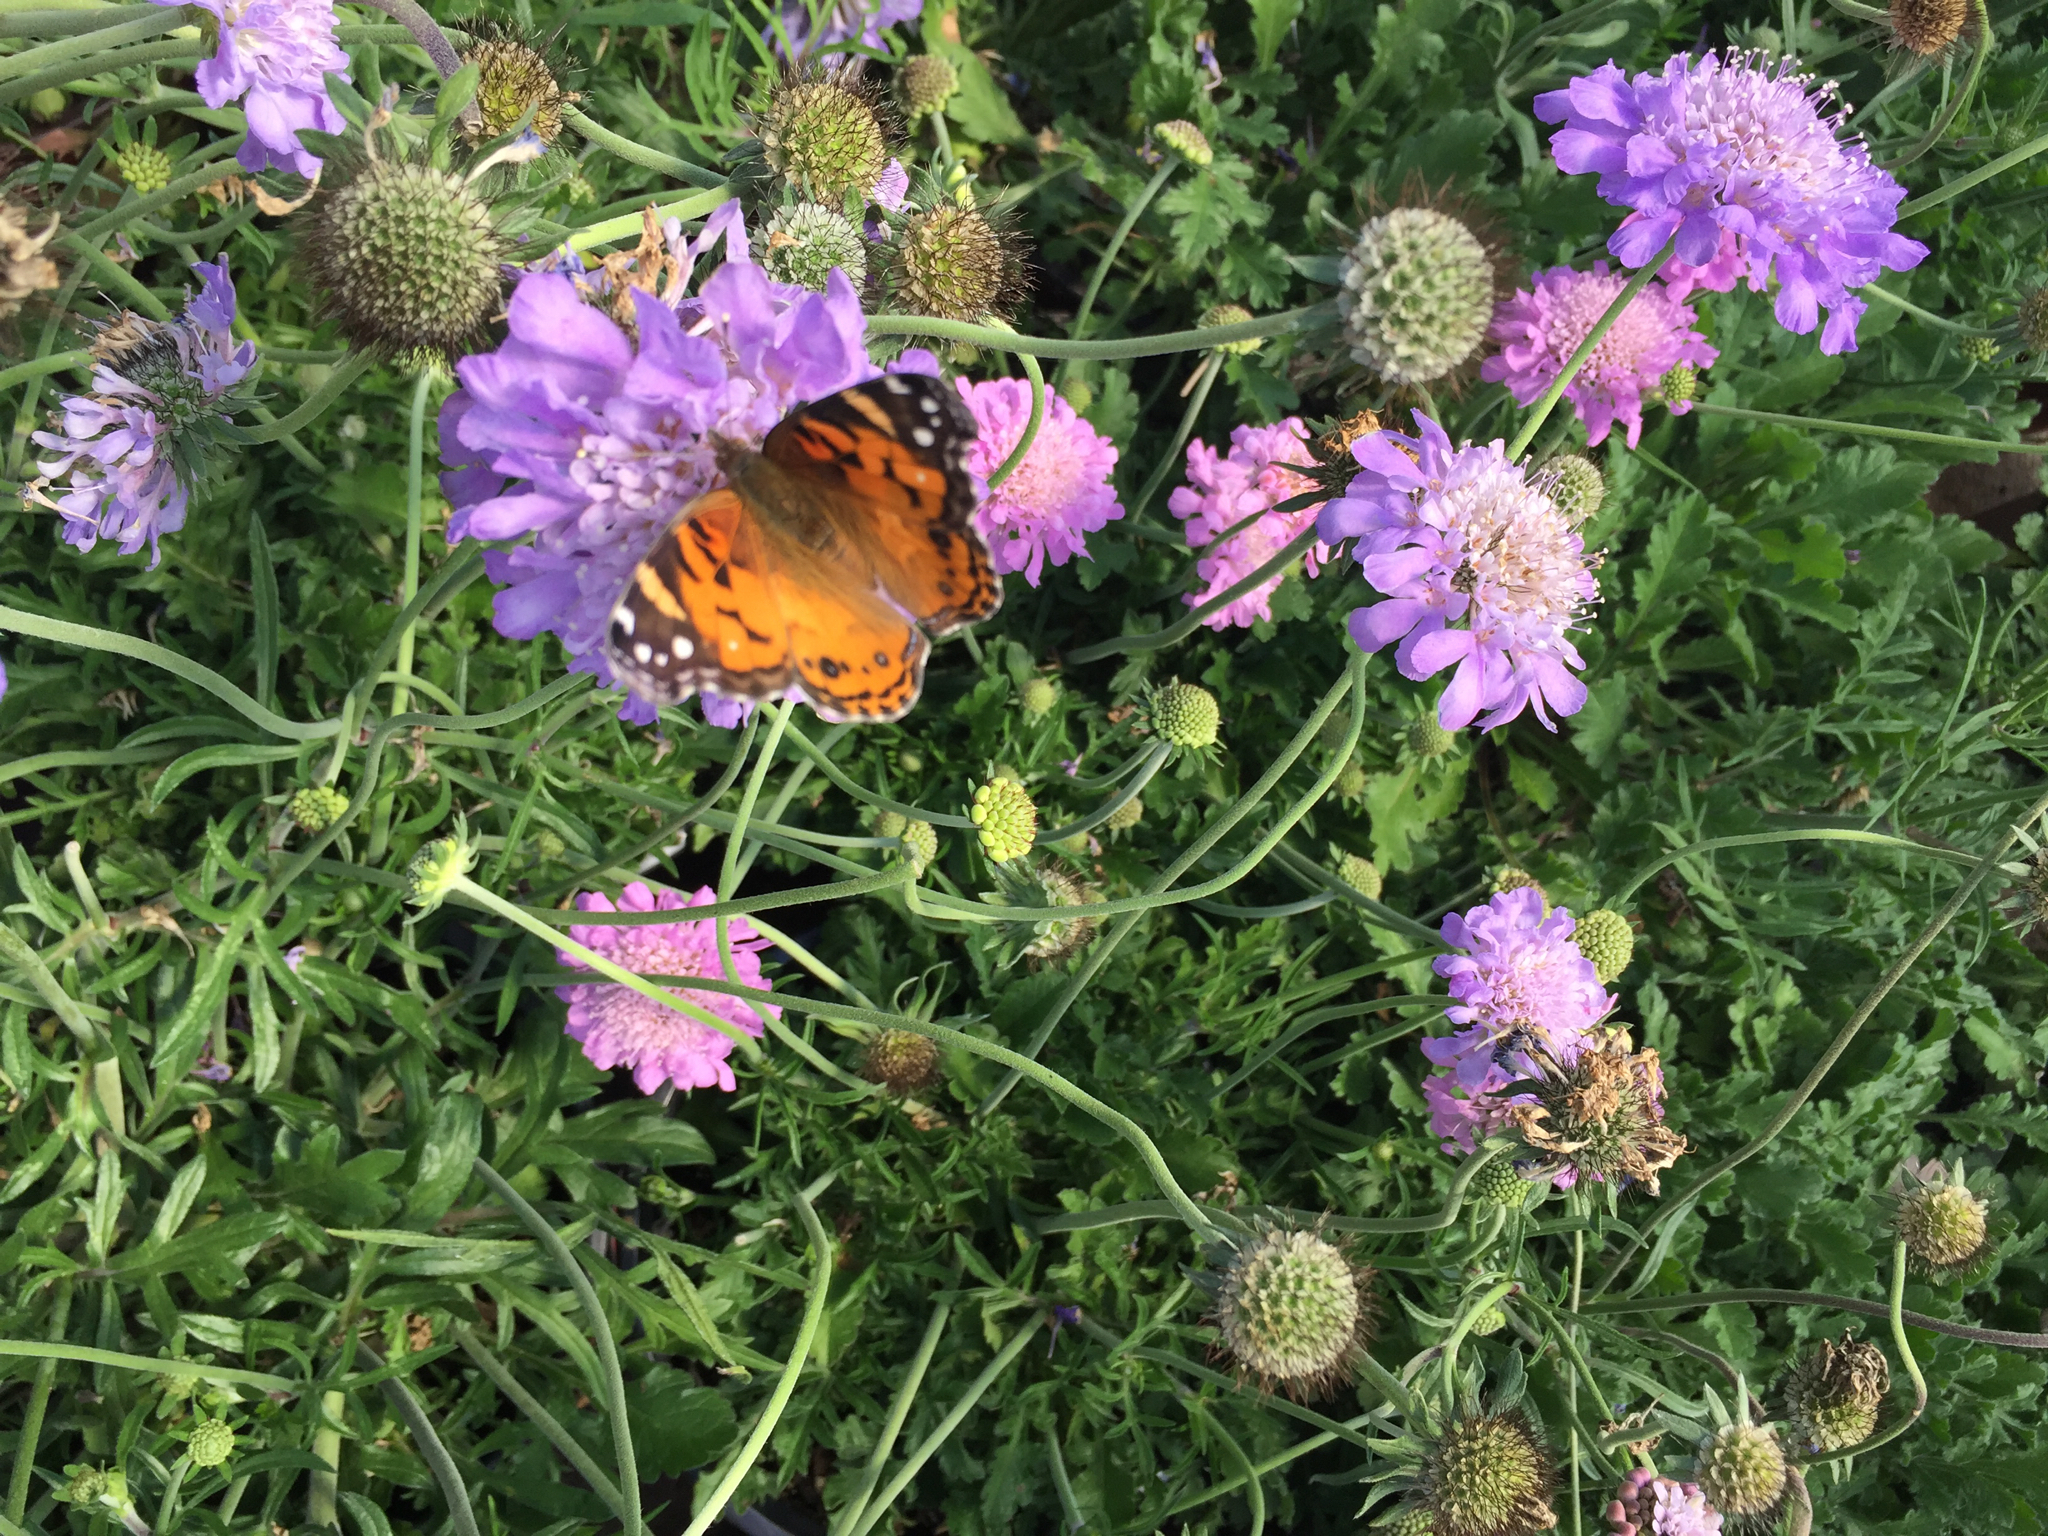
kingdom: Animalia
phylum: Arthropoda
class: Insecta
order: Lepidoptera
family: Nymphalidae
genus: Vanessa
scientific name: Vanessa virginiensis
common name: American lady
